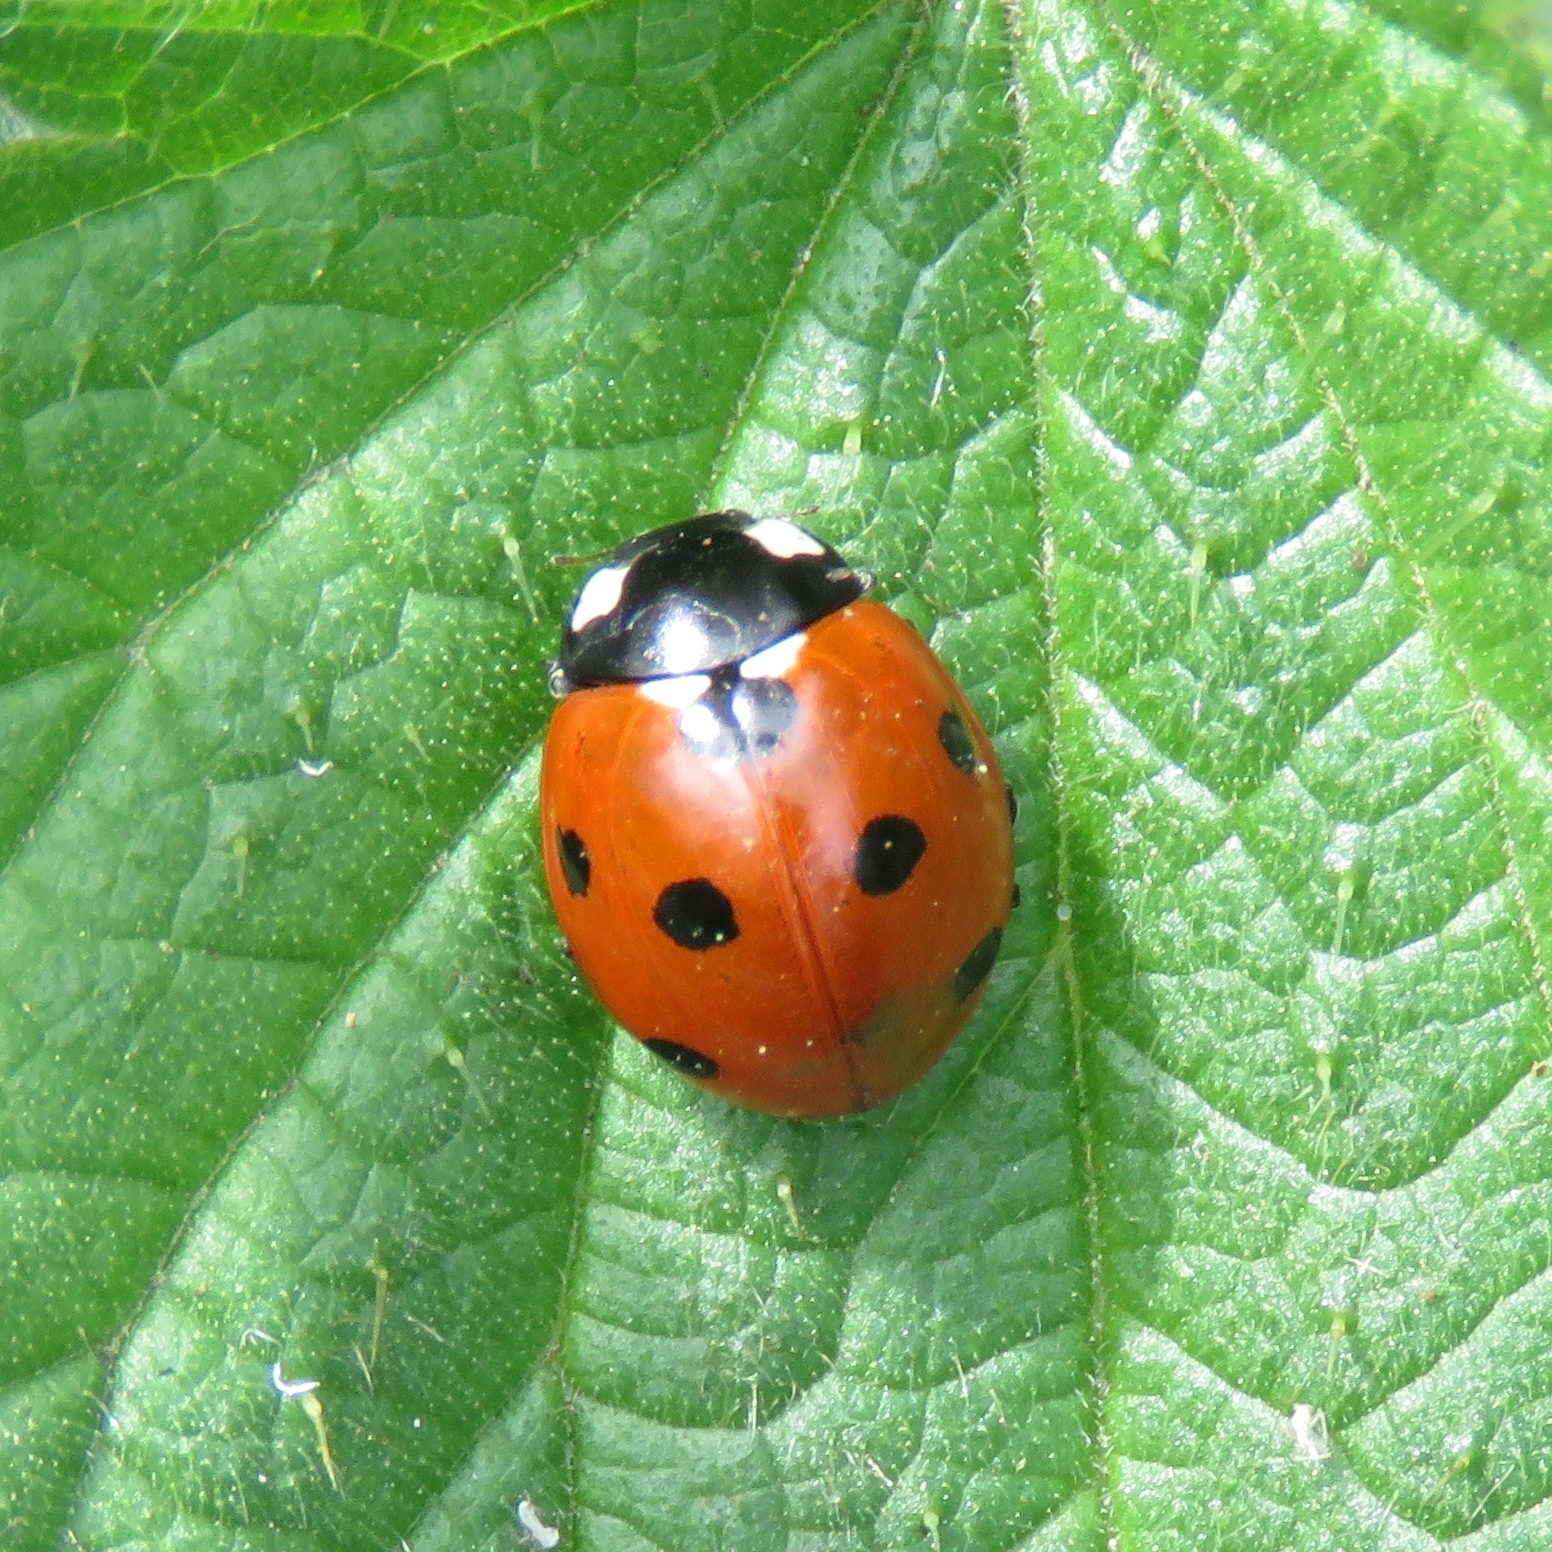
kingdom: Animalia
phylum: Arthropoda
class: Insecta
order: Coleoptera
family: Coccinellidae
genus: Coccinella
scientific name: Coccinella septempunctata
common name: Sevenspotted lady beetle
